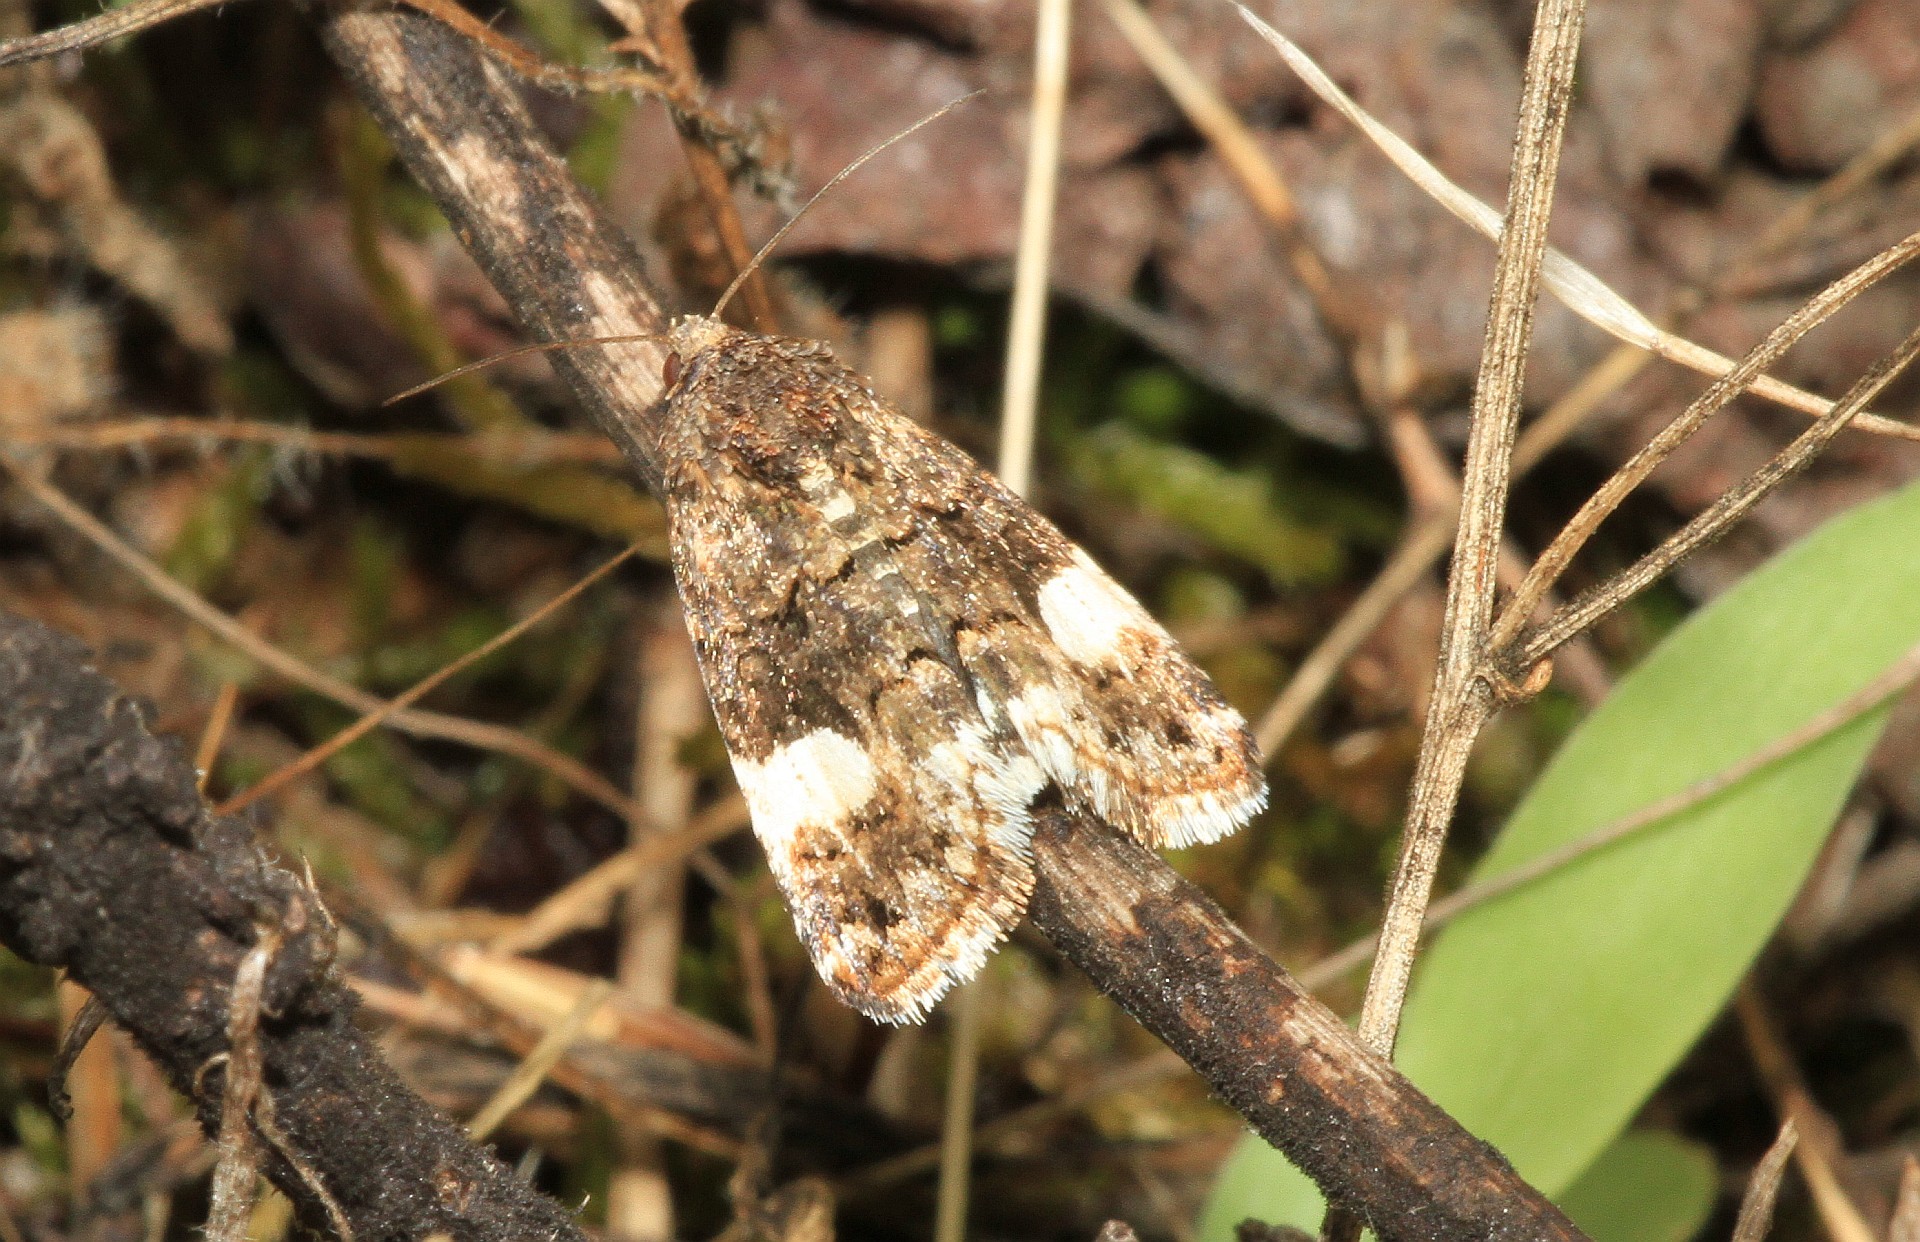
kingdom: Animalia
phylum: Arthropoda
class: Insecta
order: Lepidoptera
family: Erebidae
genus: Tyta
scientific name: Tyta luctuosa
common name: Four-spotted
